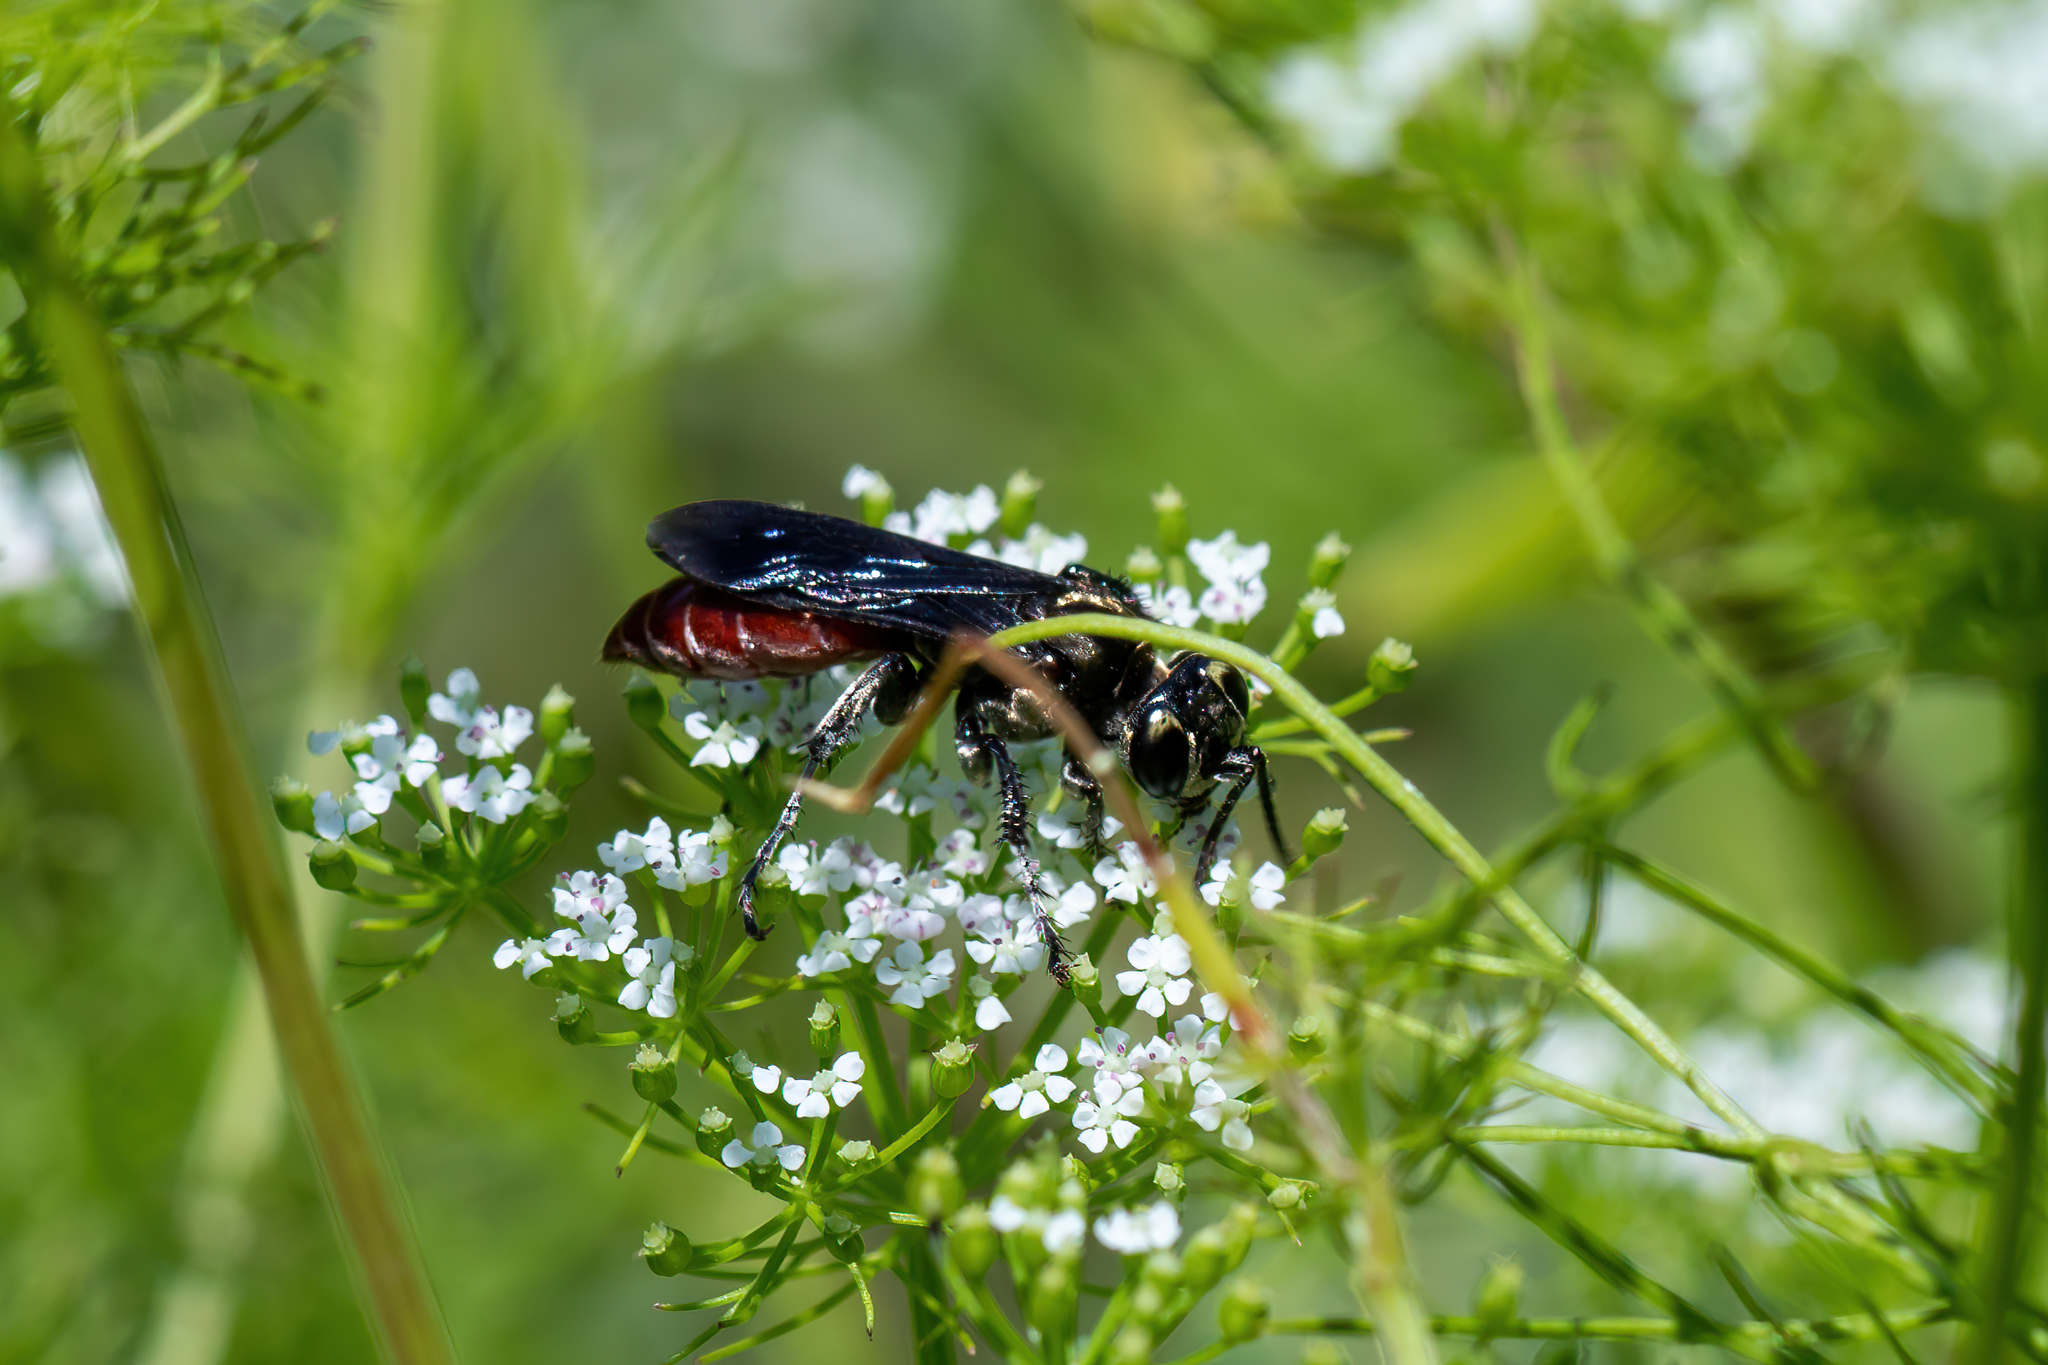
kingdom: Animalia
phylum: Arthropoda
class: Insecta
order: Hymenoptera
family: Crabronidae
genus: Larra
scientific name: Larra bicolor
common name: Wasp
